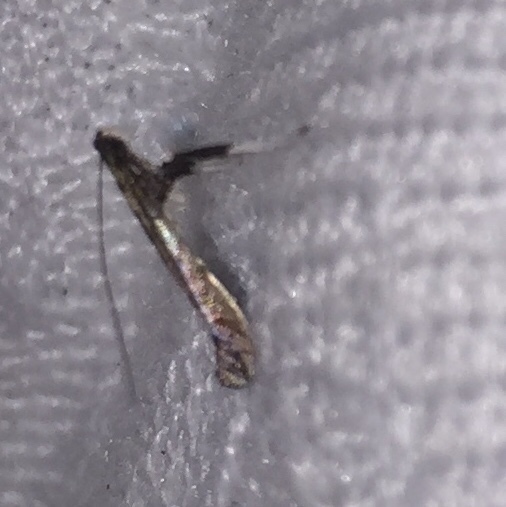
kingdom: Animalia
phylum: Arthropoda
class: Insecta
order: Lepidoptera
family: Gracillariidae
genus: Caloptilia
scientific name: Caloptilia
